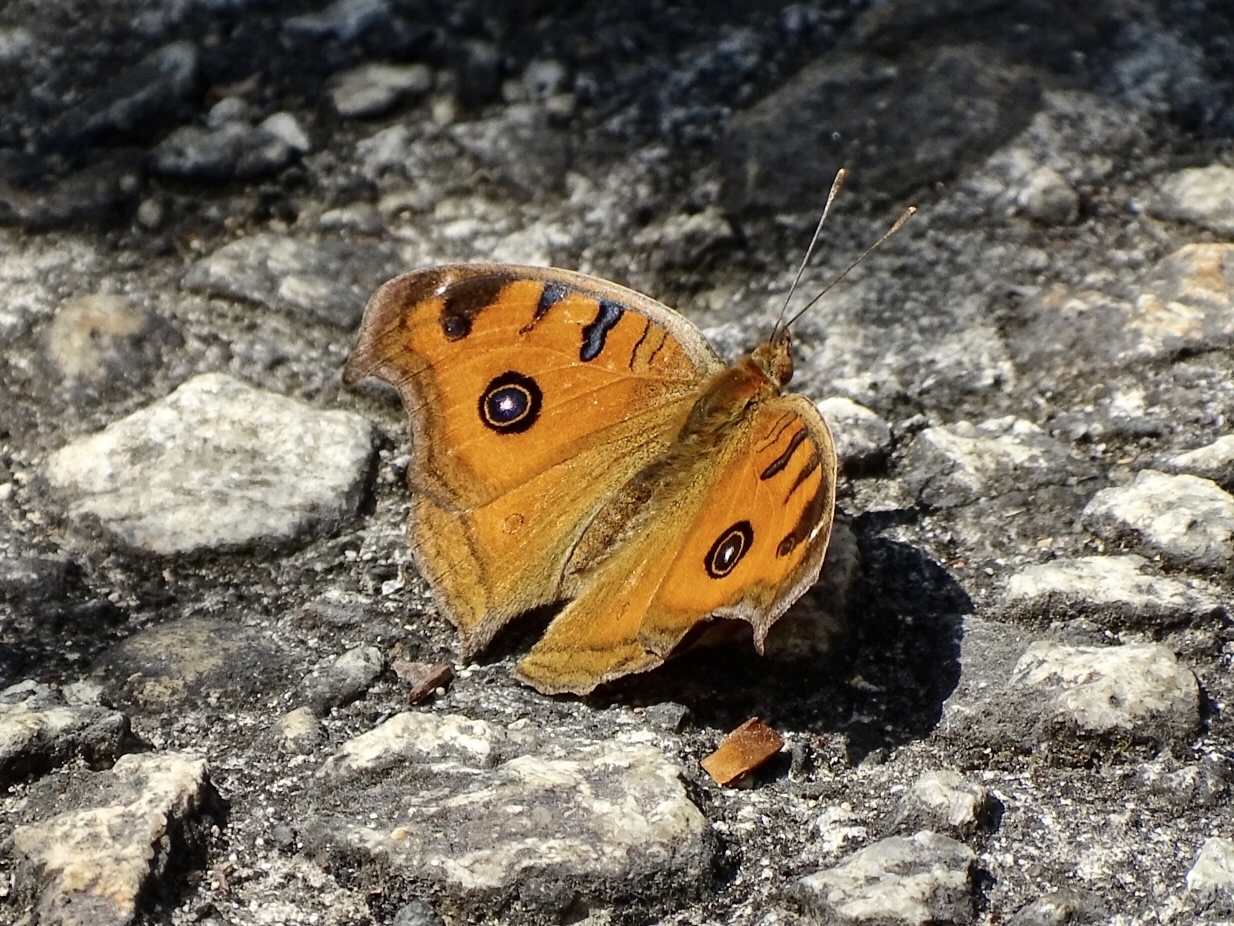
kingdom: Animalia
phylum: Arthropoda
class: Insecta
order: Lepidoptera
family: Nymphalidae
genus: Junonia
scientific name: Junonia almana
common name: Peacock pansy
